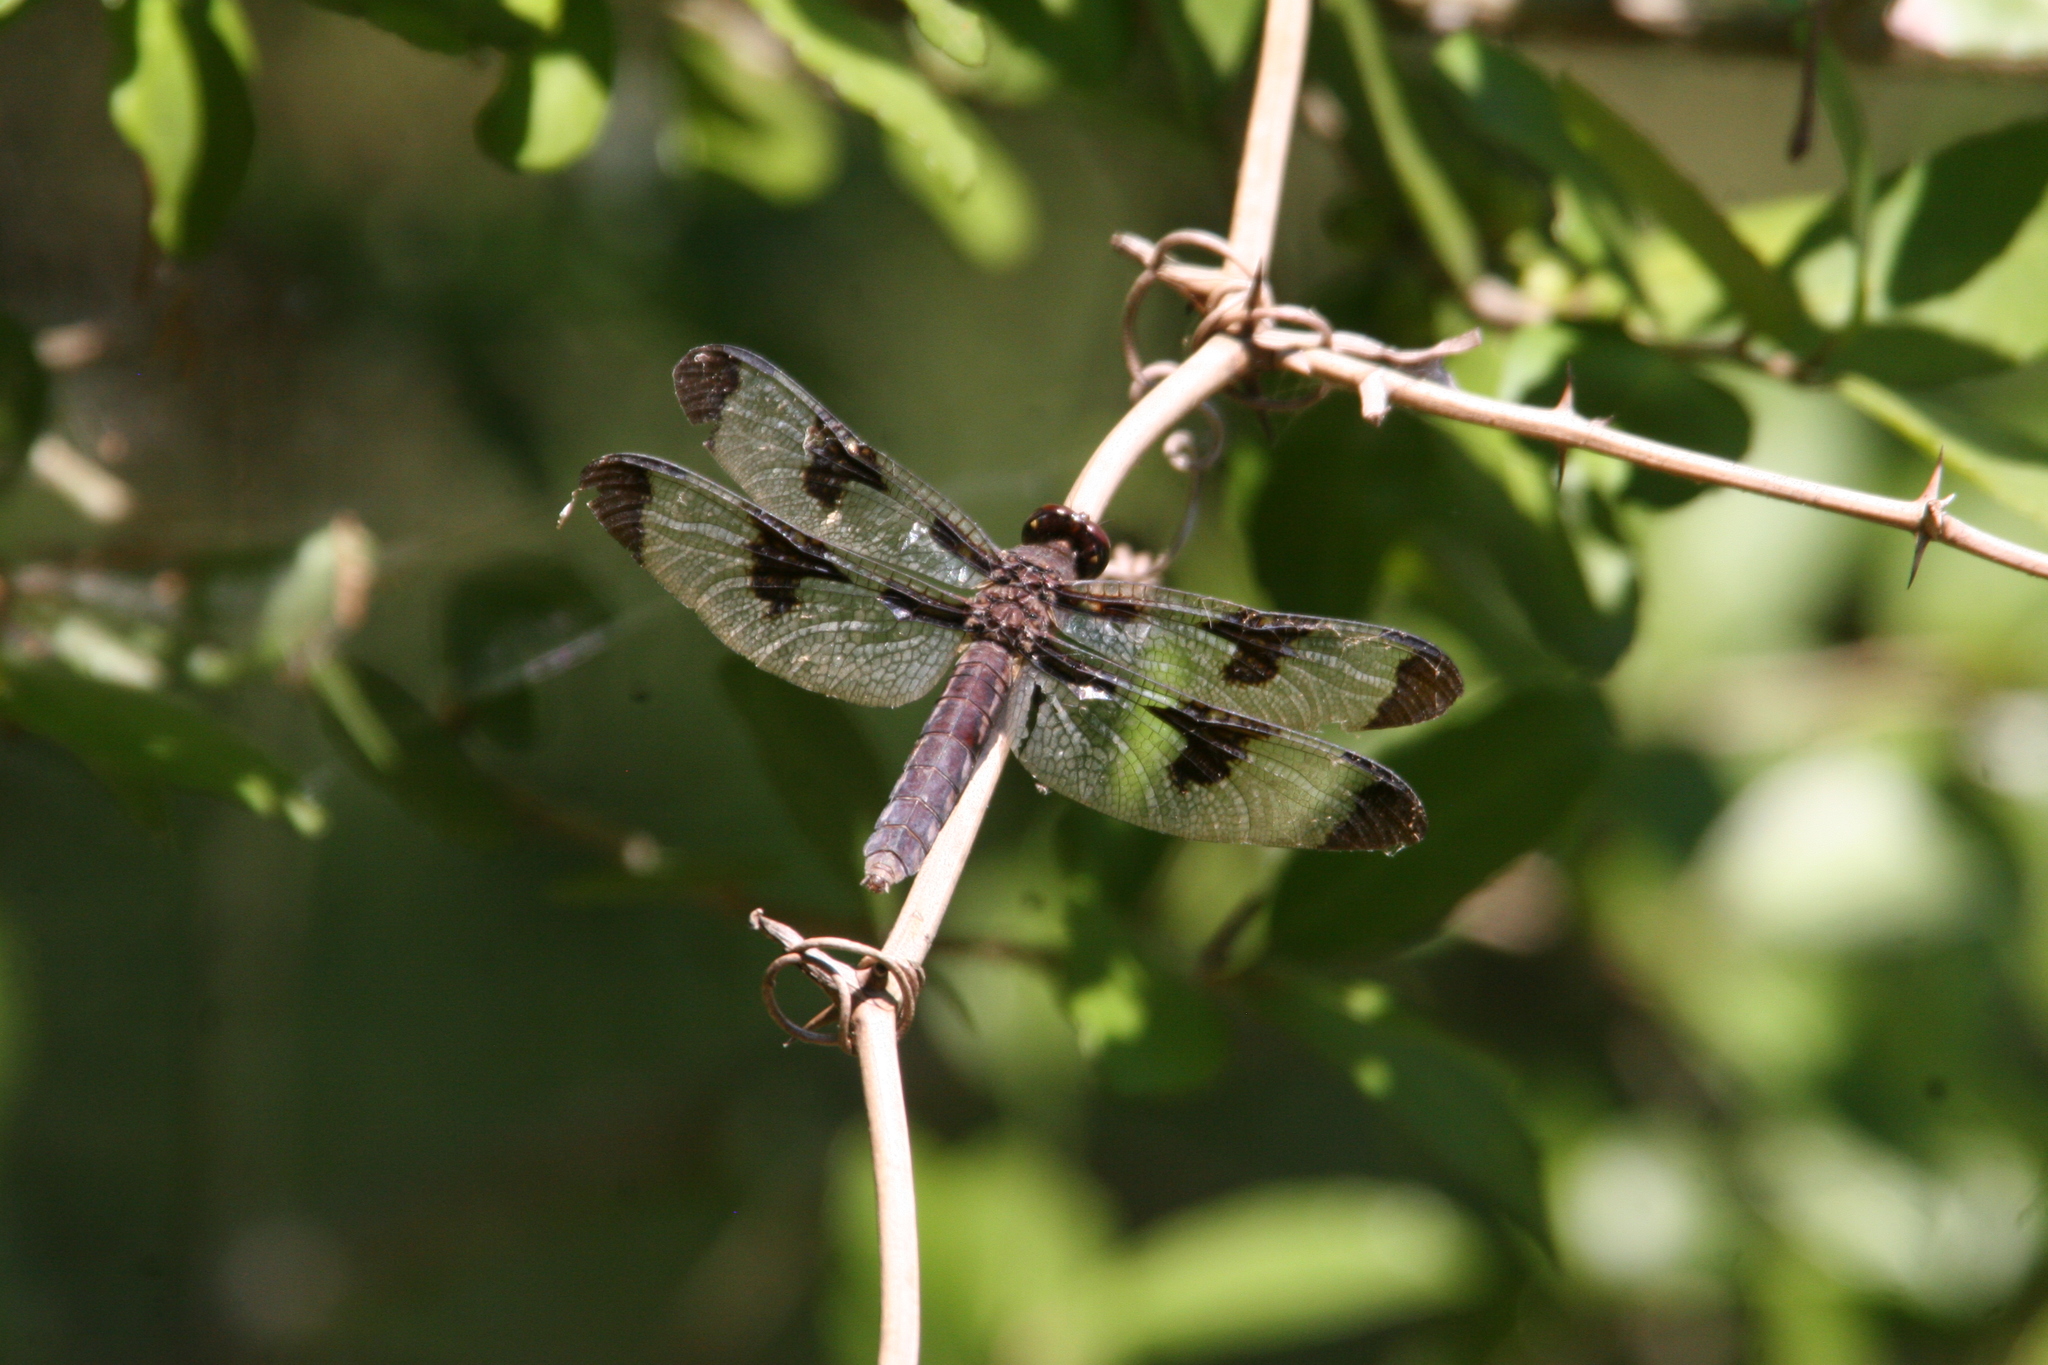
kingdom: Animalia
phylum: Arthropoda
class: Insecta
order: Odonata
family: Libellulidae
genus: Plathemis
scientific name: Plathemis lydia
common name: Common whitetail
